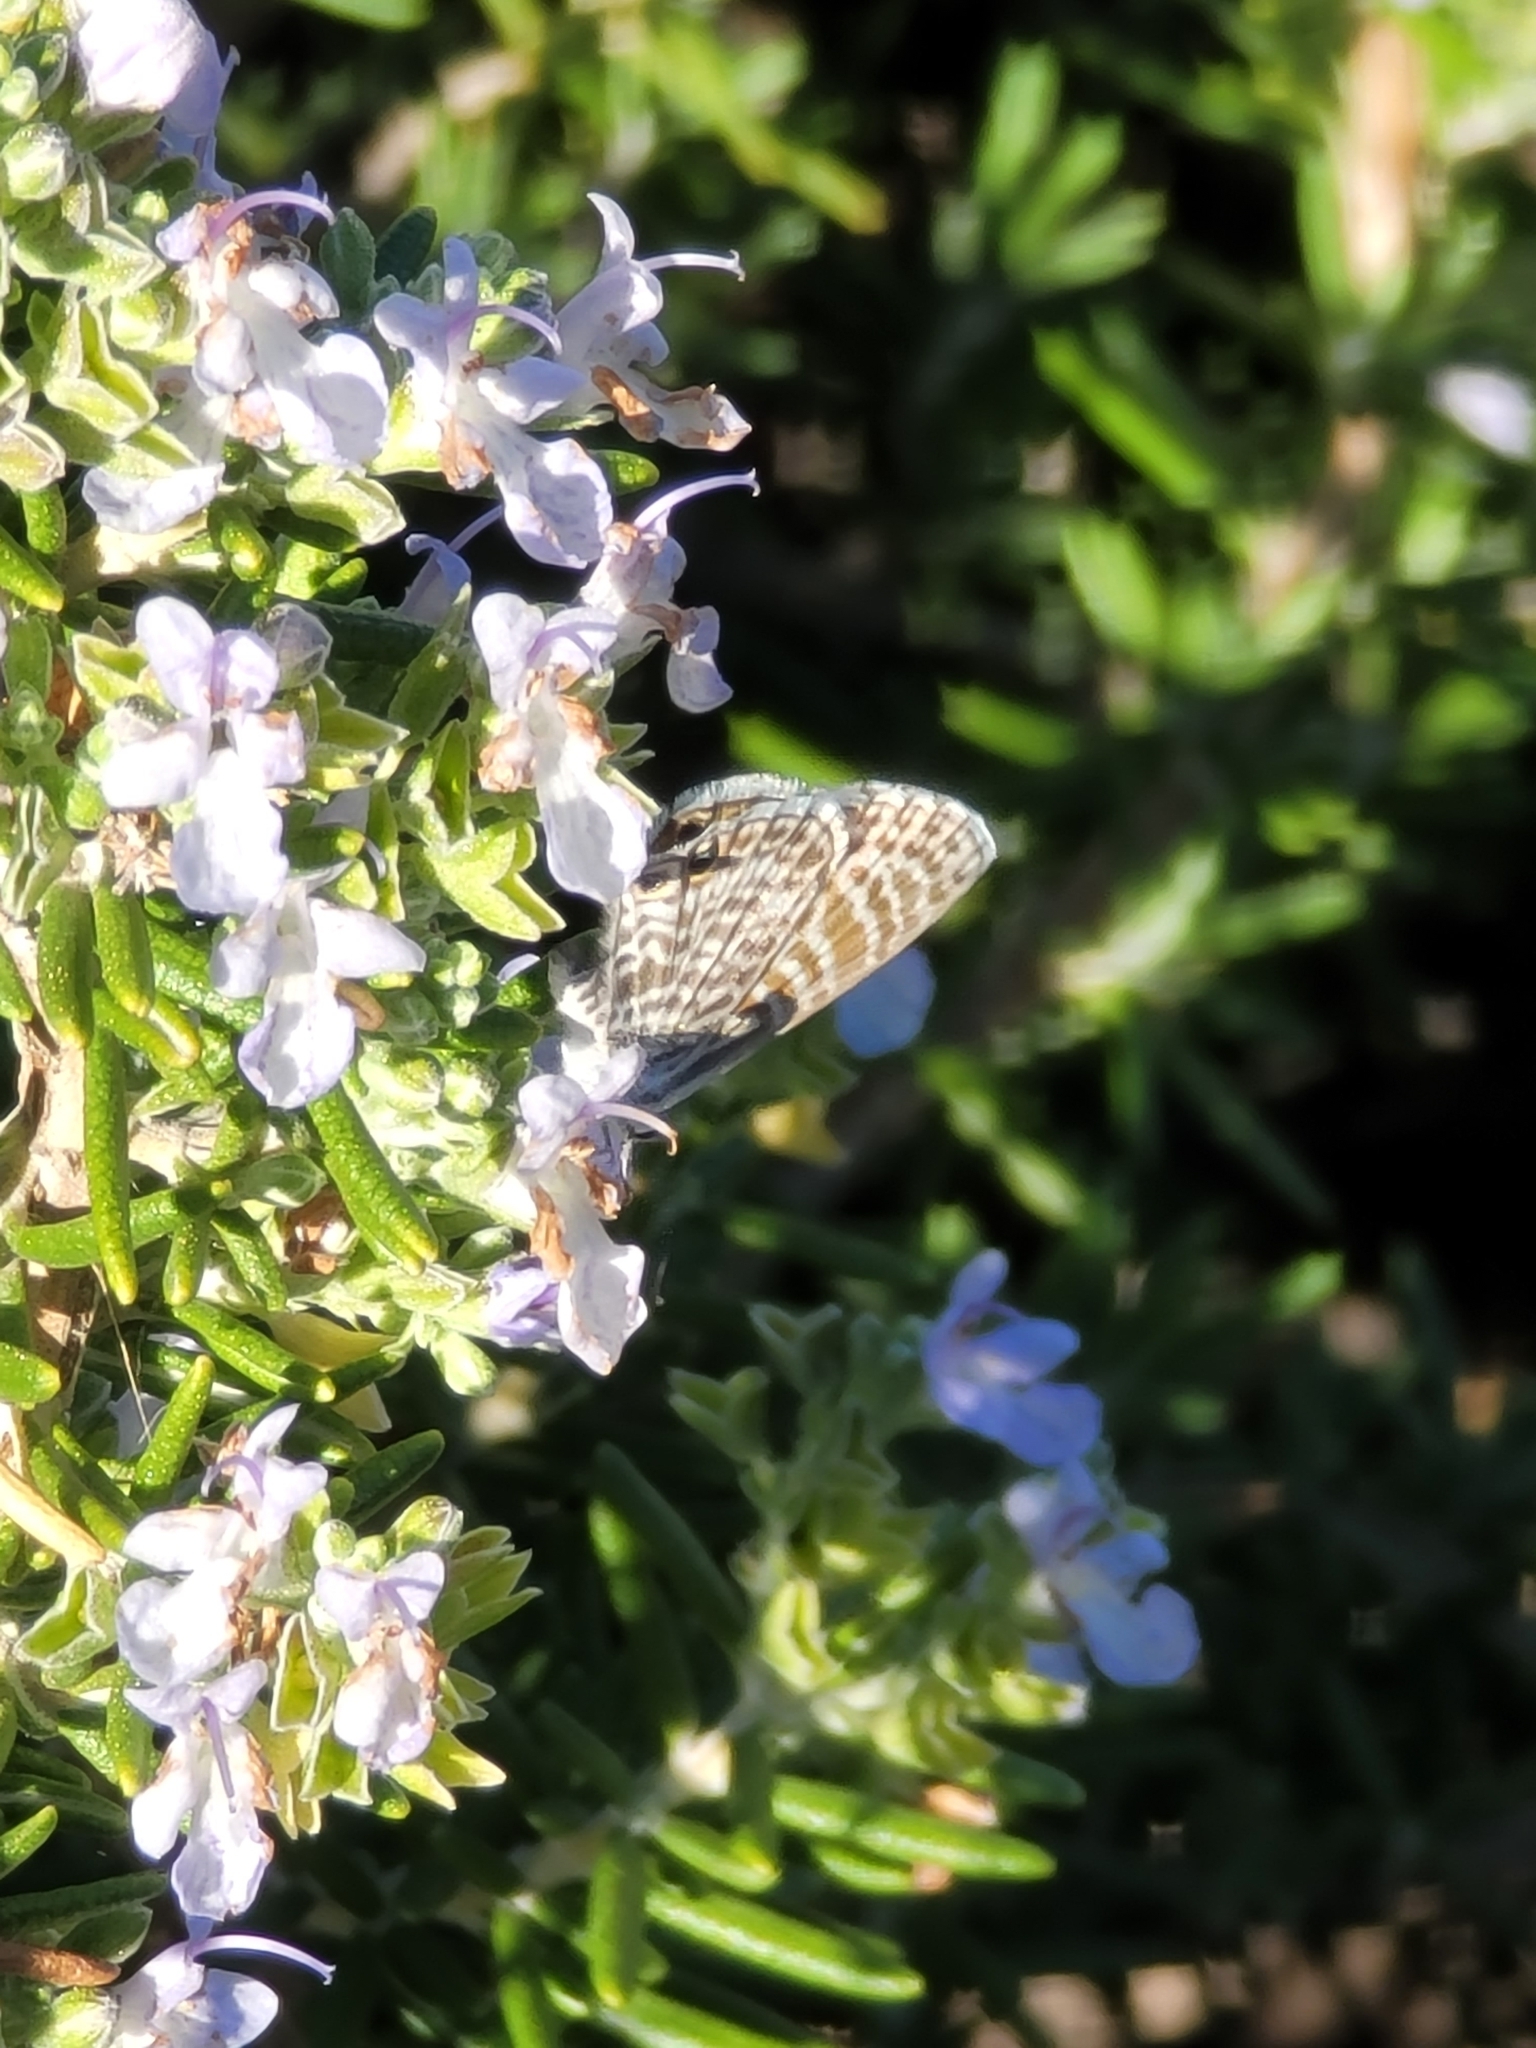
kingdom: Animalia
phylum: Arthropoda
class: Insecta
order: Lepidoptera
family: Lycaenidae
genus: Leptotes
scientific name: Leptotes marina
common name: Marine blue
